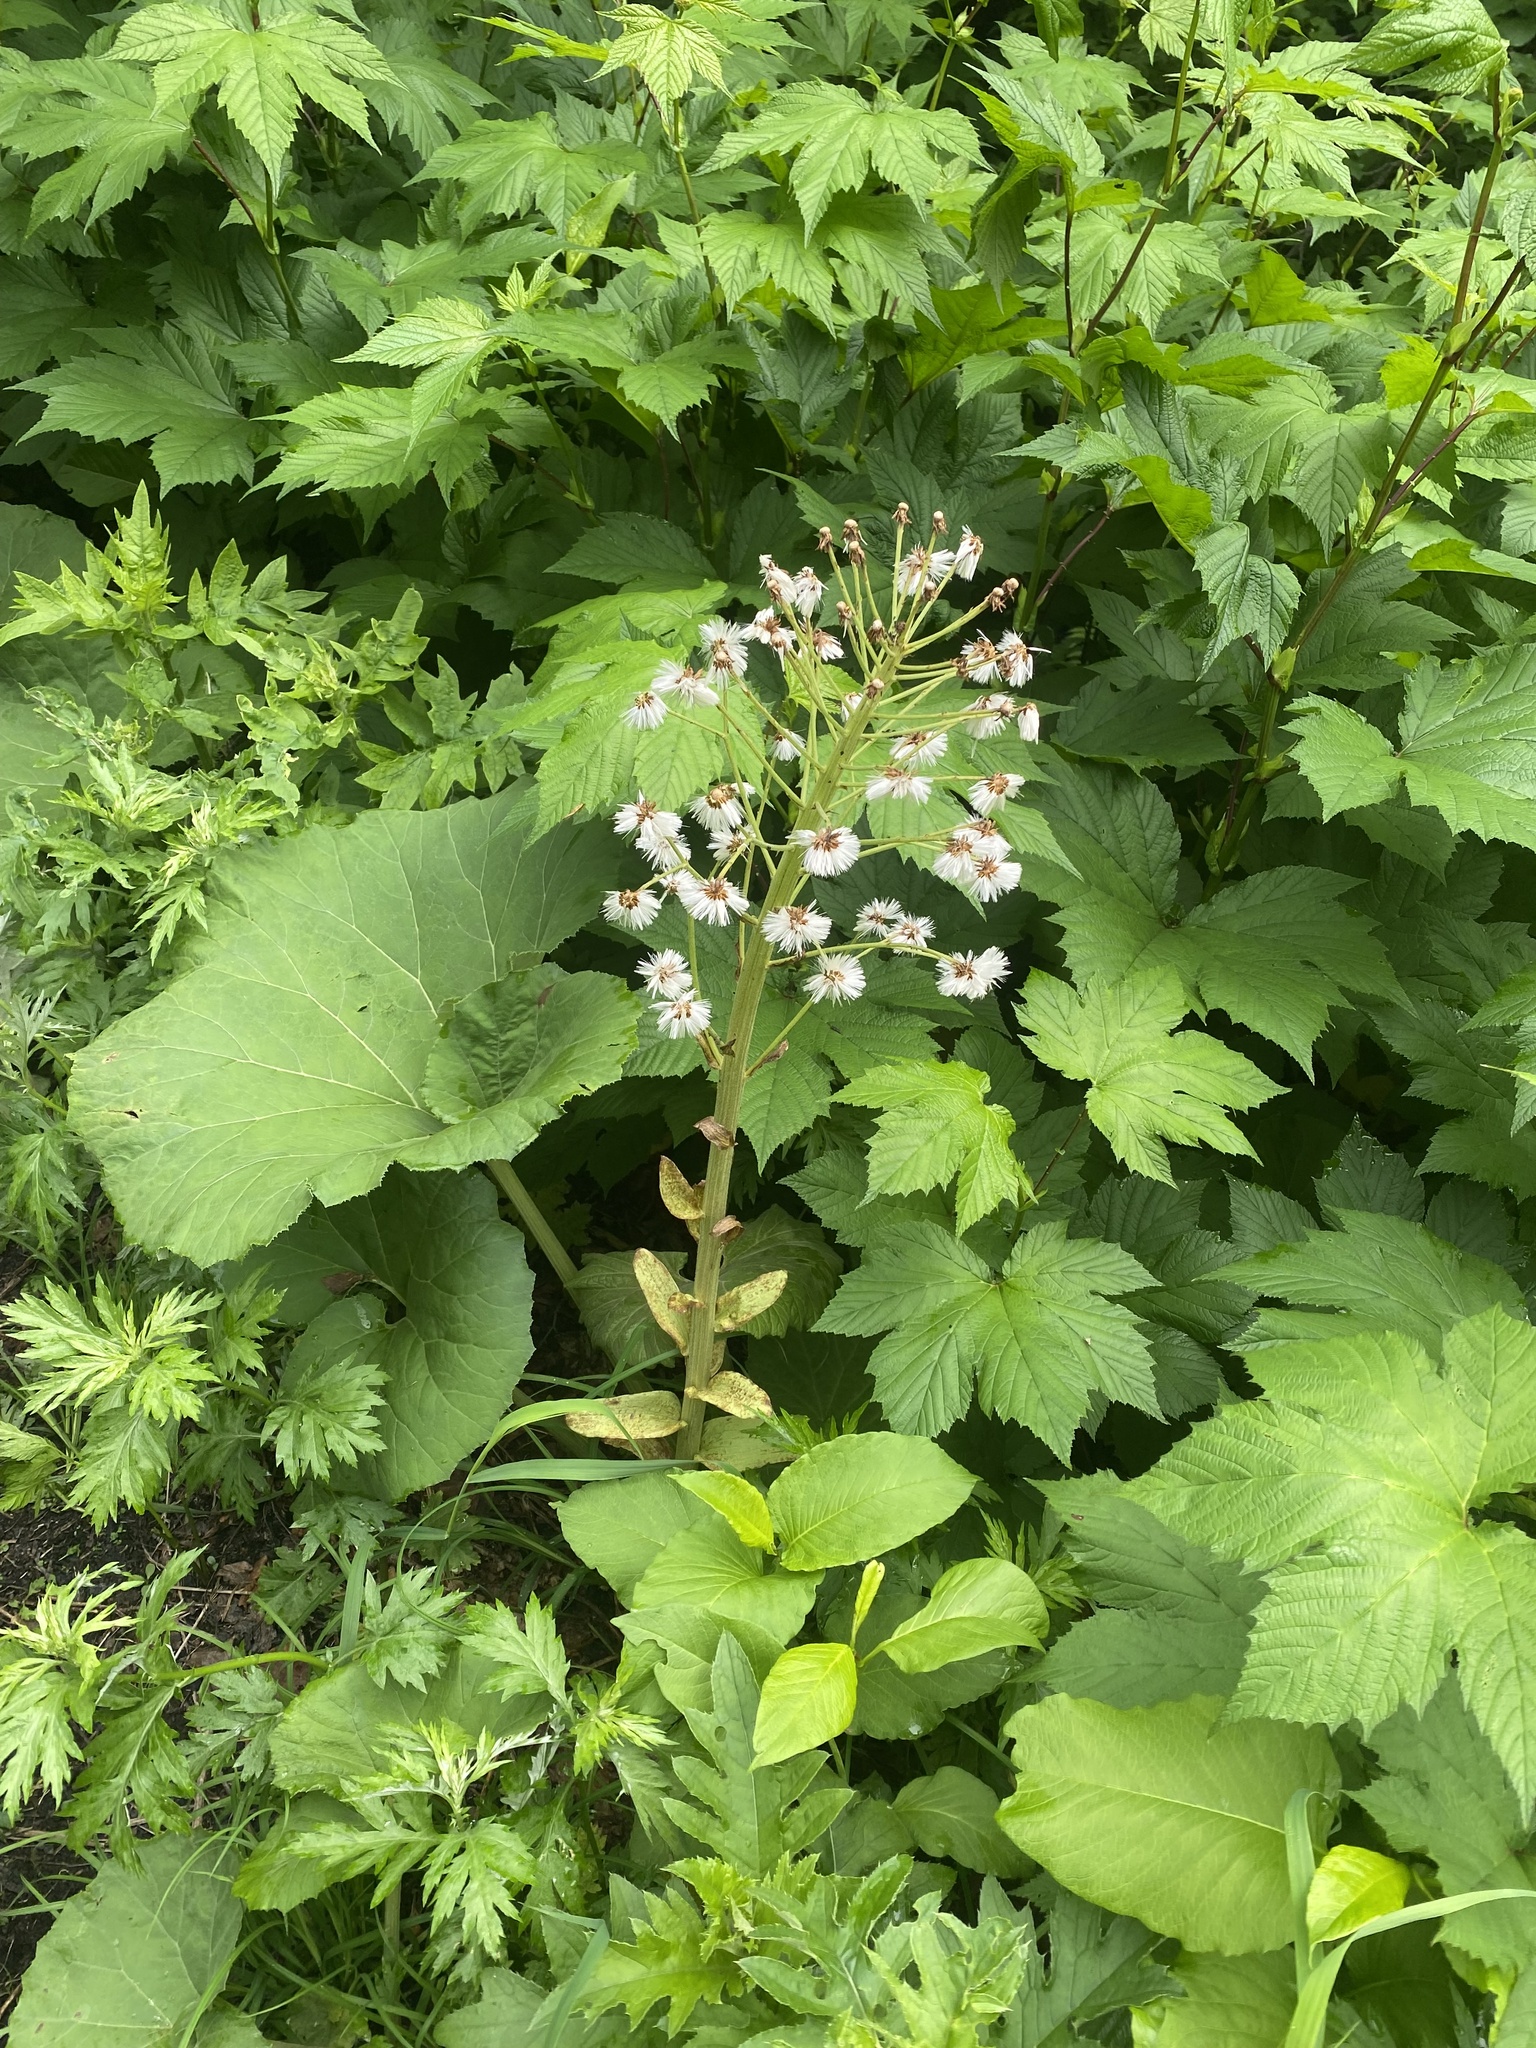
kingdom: Plantae
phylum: Tracheophyta
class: Magnoliopsida
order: Asterales
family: Asteraceae
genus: Petasites
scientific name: Petasites japonicus
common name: Giant butterbur
